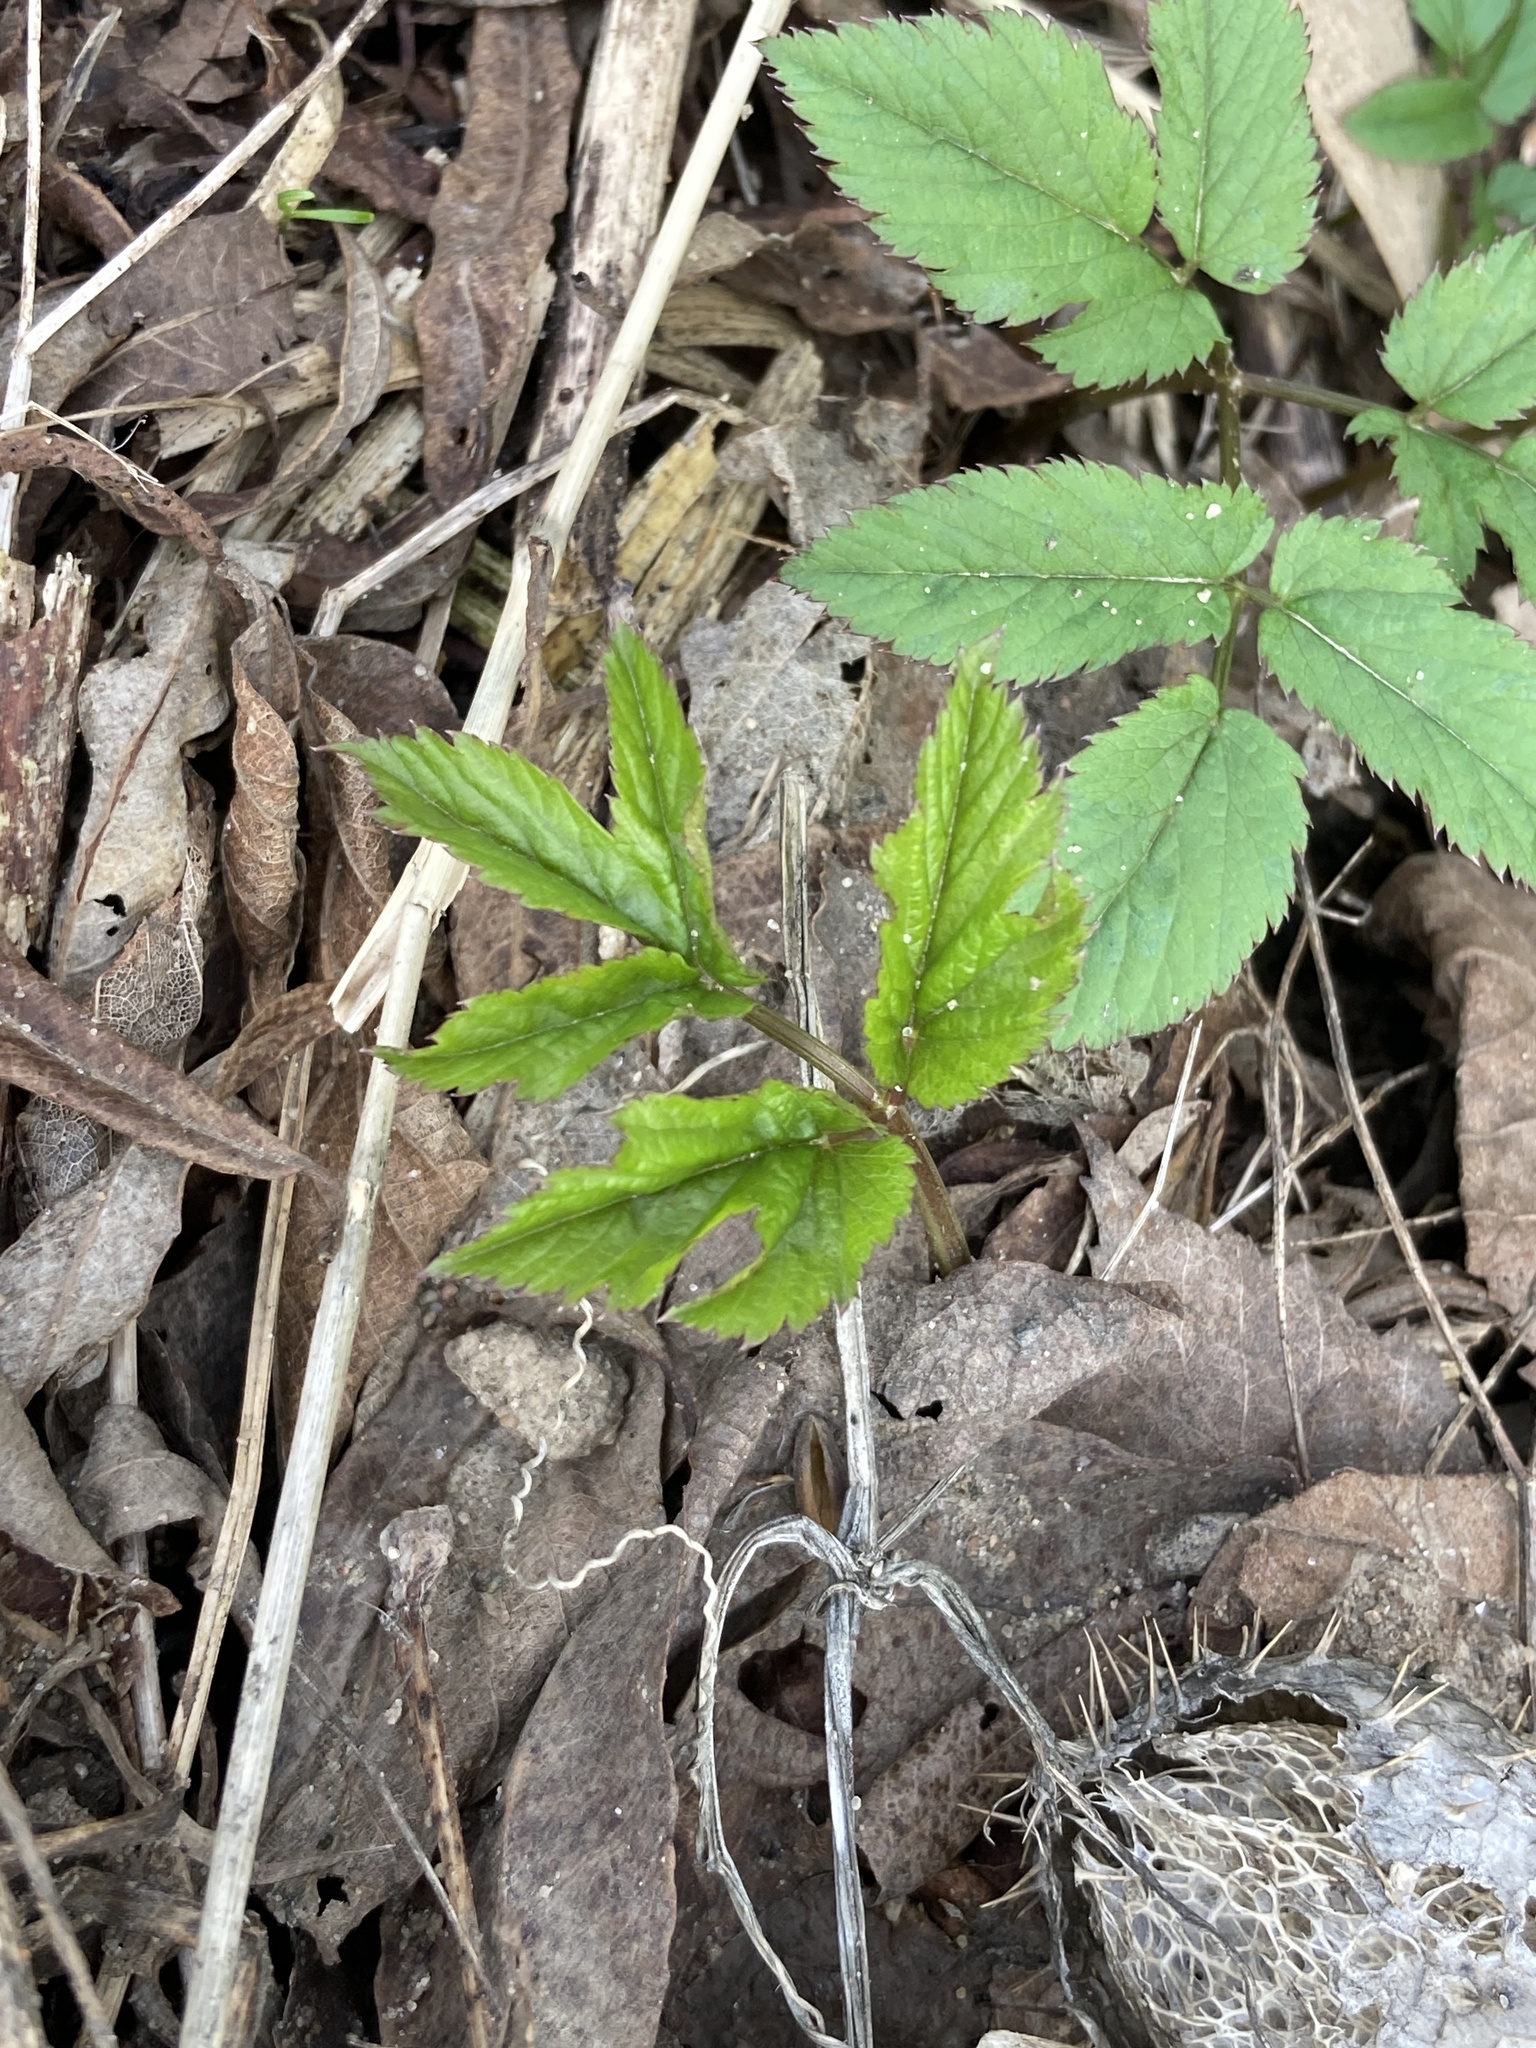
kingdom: Plantae
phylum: Tracheophyta
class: Magnoliopsida
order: Apiales
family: Apiaceae
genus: Aegopodium
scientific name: Aegopodium podagraria
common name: Ground-elder
